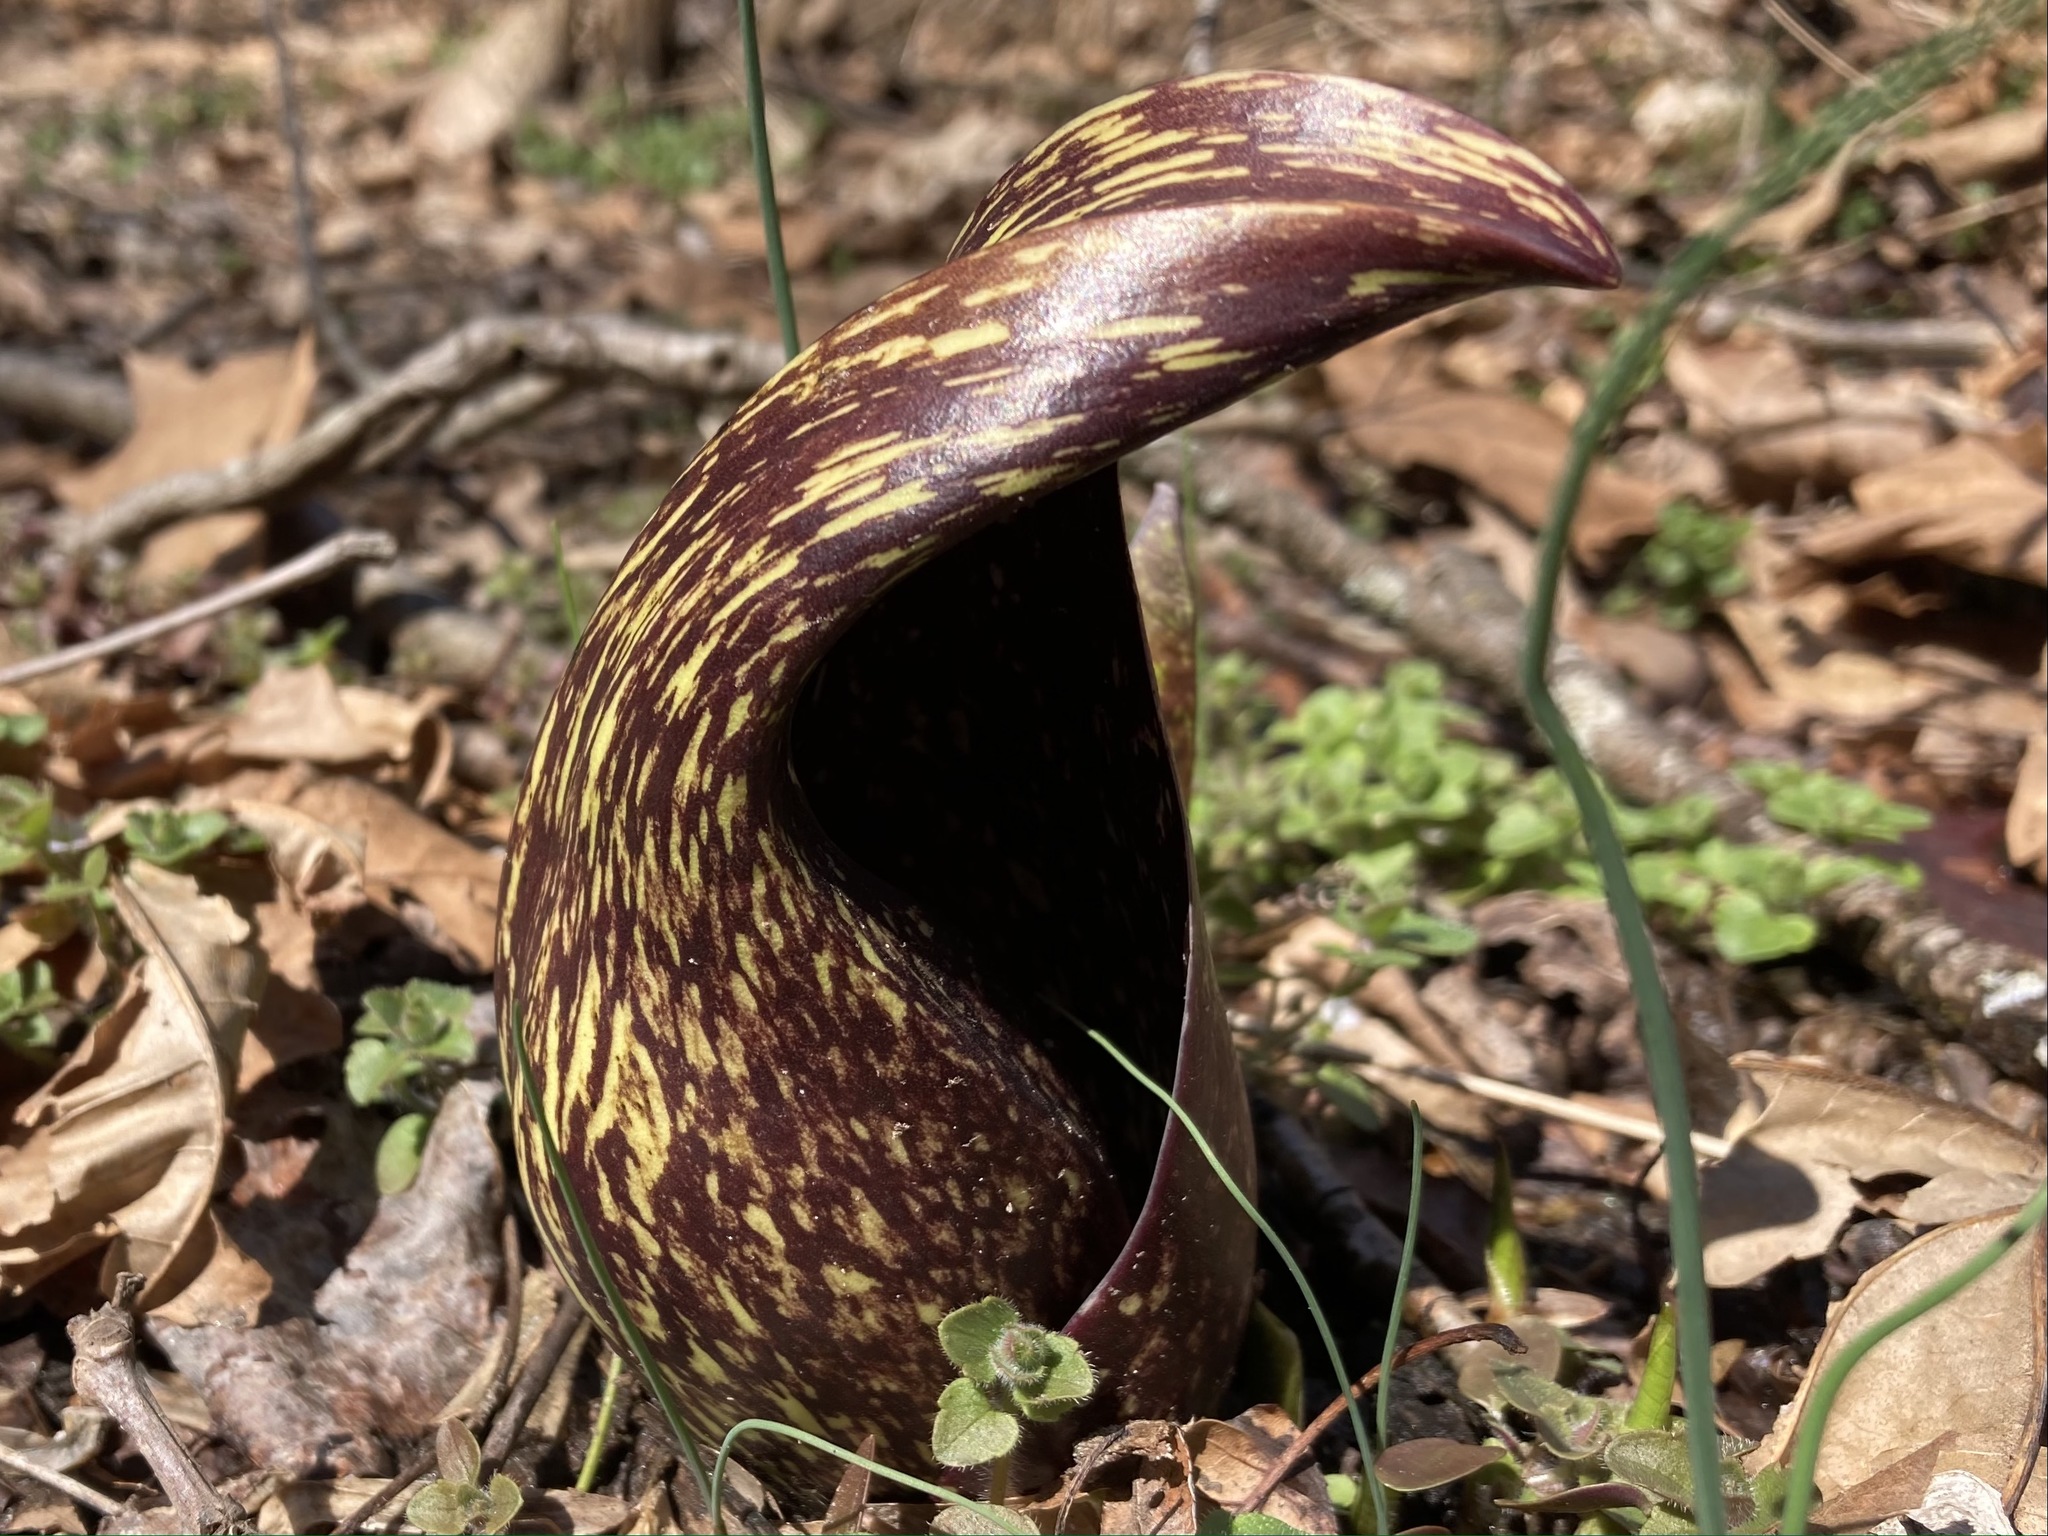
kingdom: Plantae
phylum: Tracheophyta
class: Liliopsida
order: Alismatales
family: Araceae
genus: Symplocarpus
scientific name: Symplocarpus foetidus
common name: Eastern skunk cabbage
